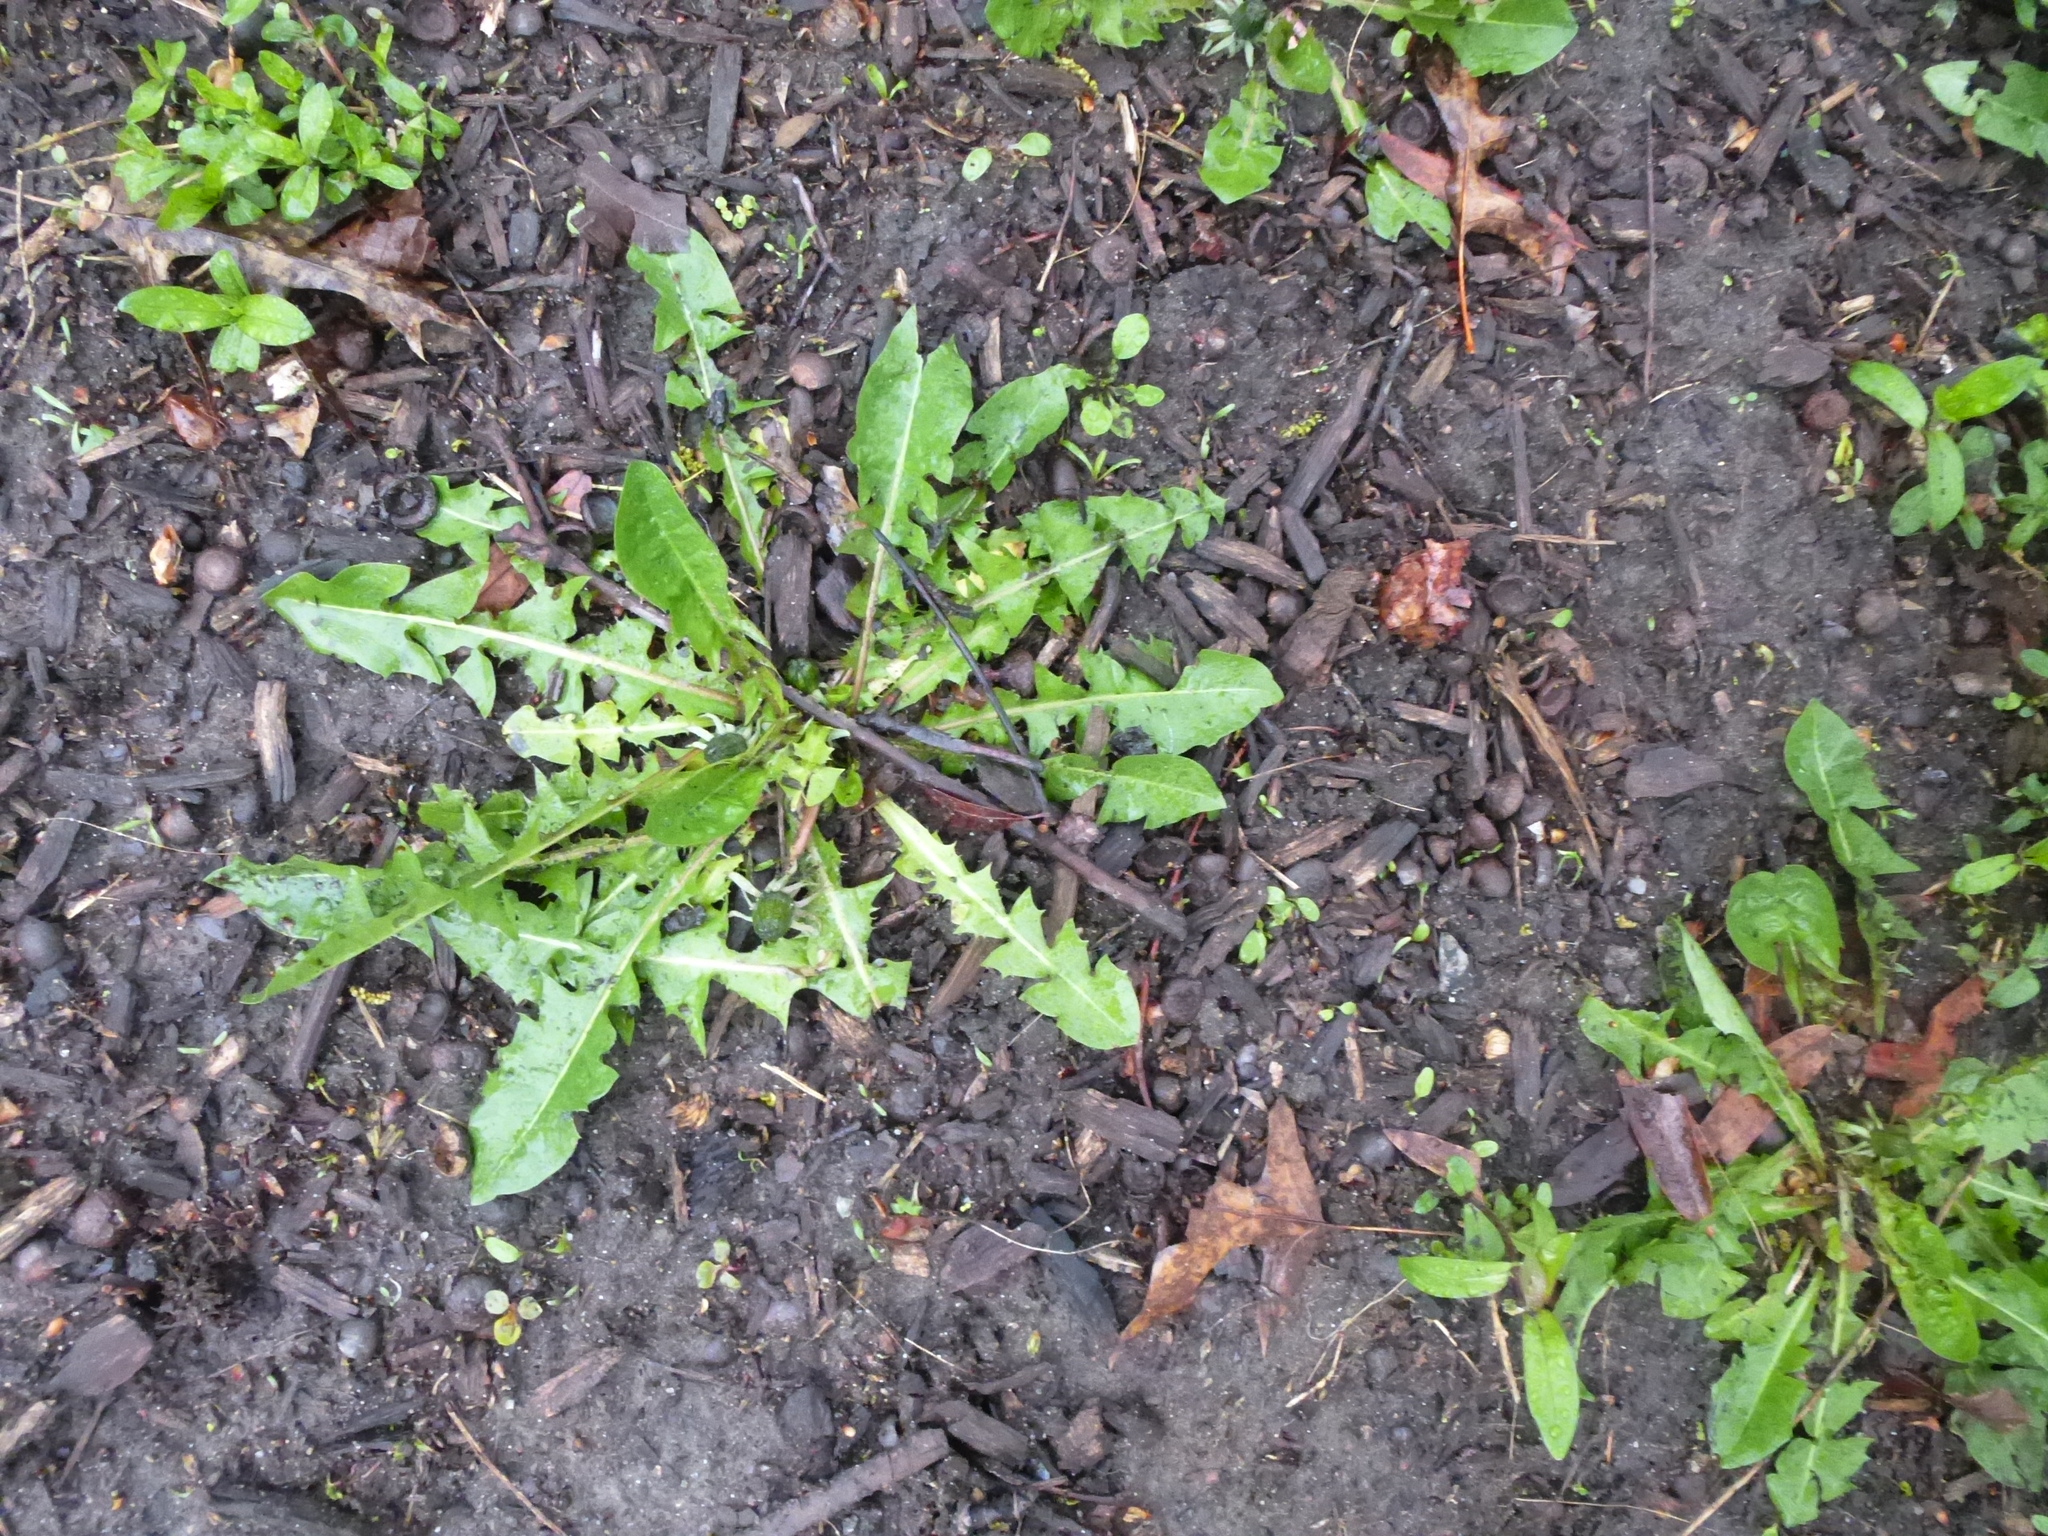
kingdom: Plantae
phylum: Tracheophyta
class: Magnoliopsida
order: Asterales
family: Asteraceae
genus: Taraxacum
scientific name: Taraxacum officinale
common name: Common dandelion
